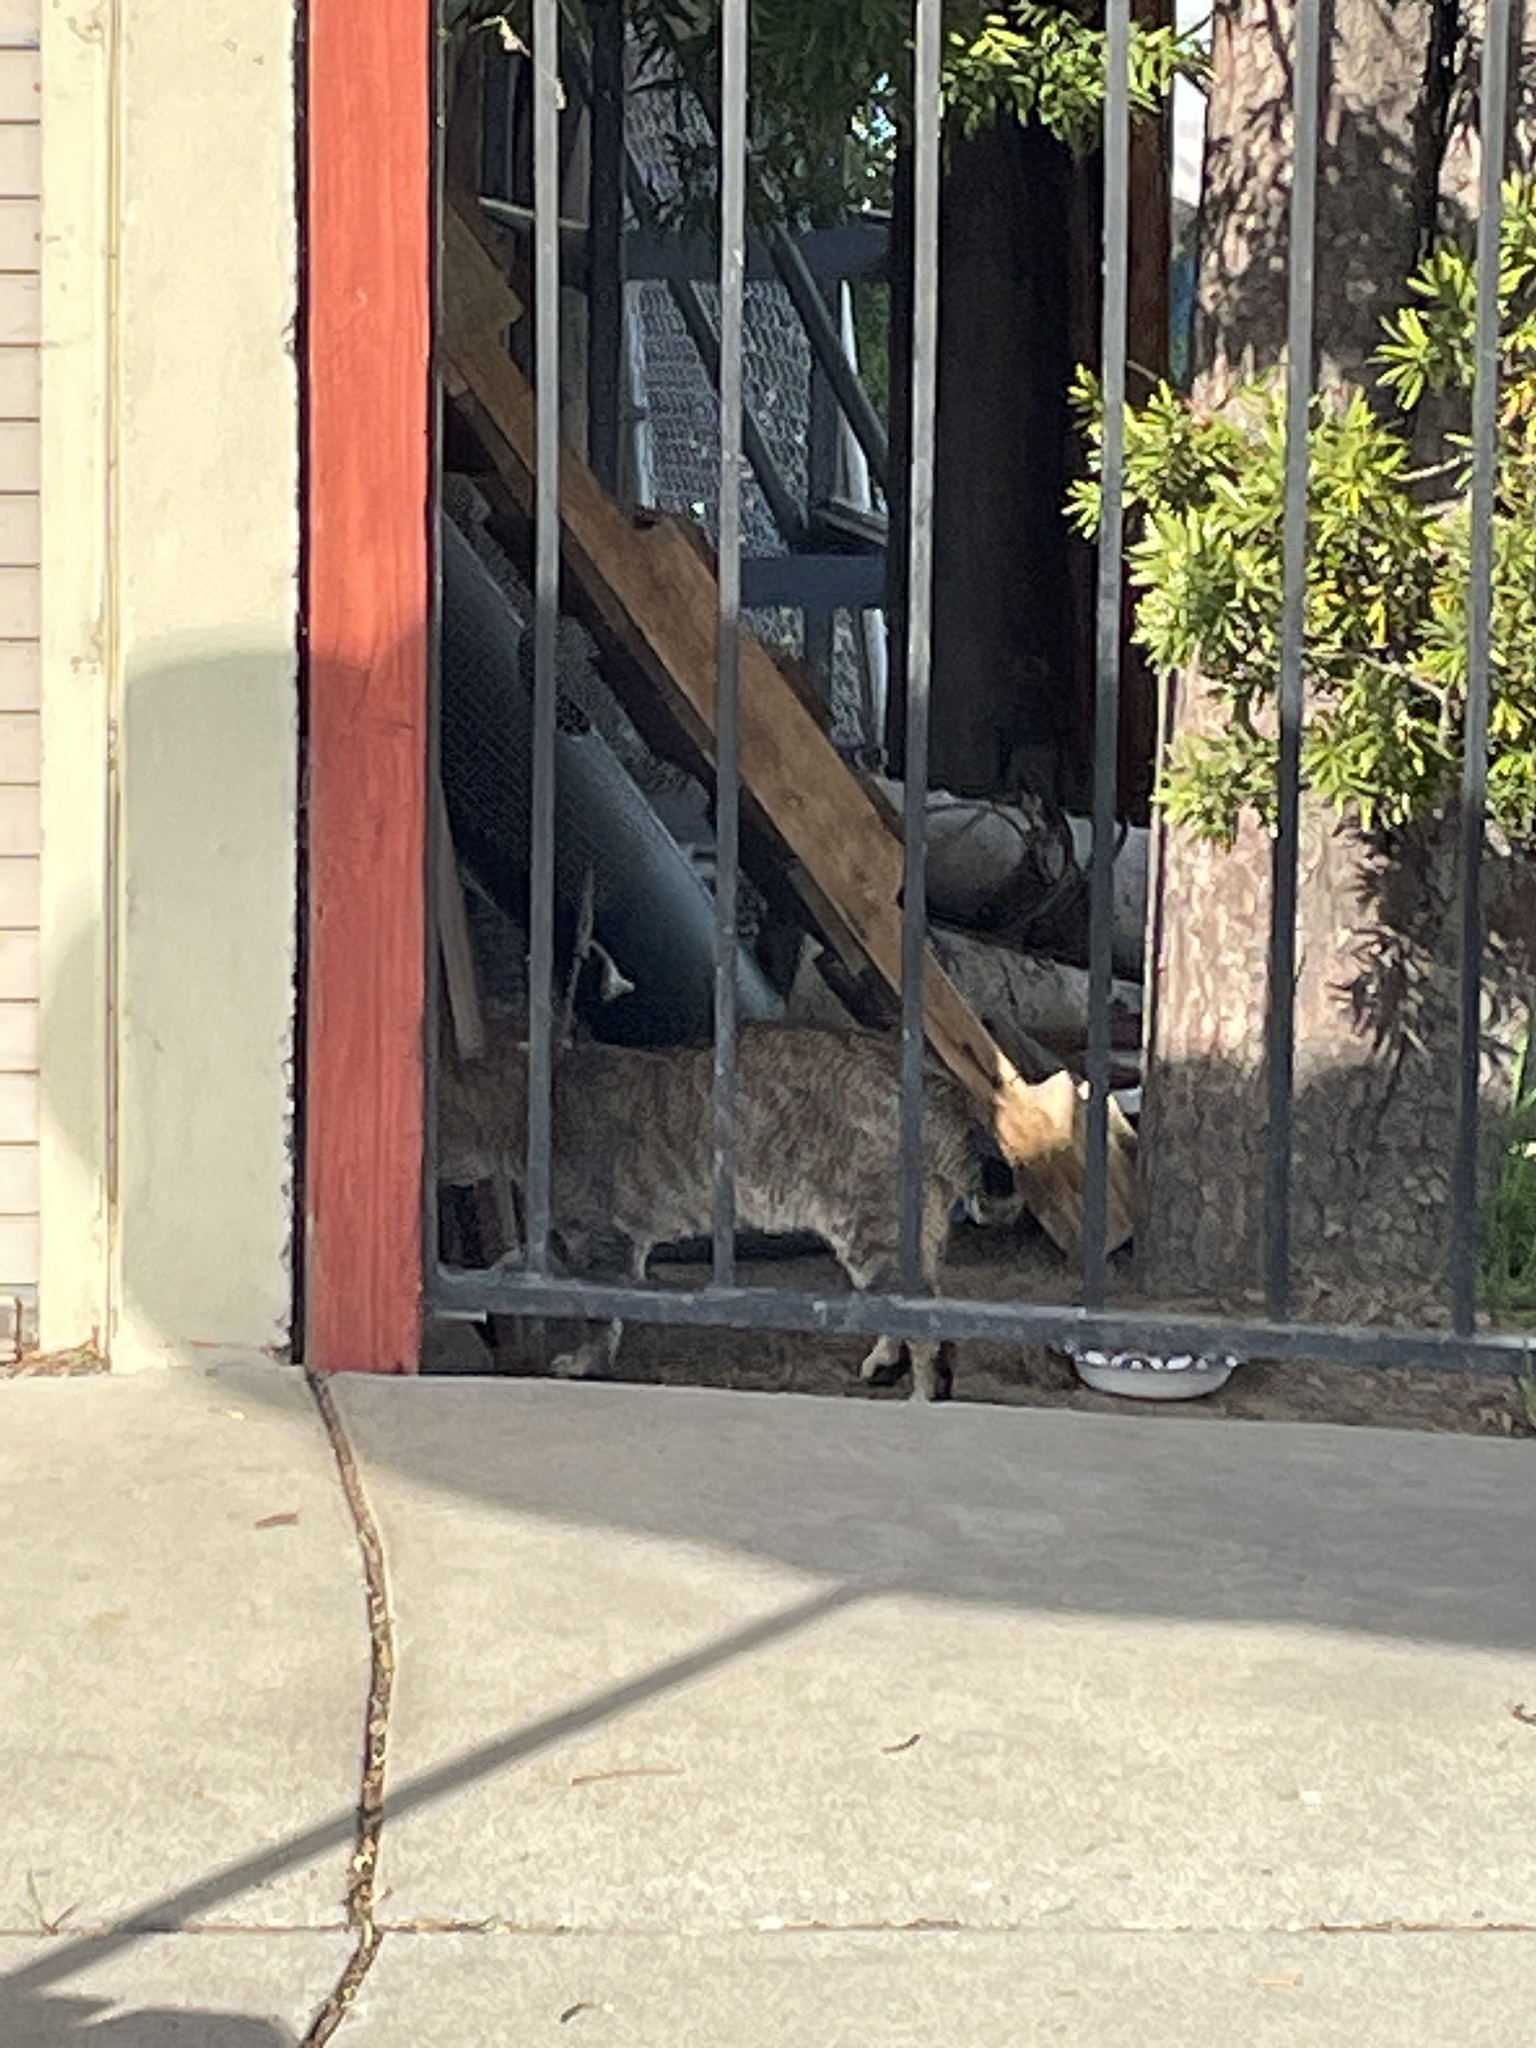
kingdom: Animalia
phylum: Chordata
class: Mammalia
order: Carnivora
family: Felidae
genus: Felis
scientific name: Felis catus
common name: Domestic cat
